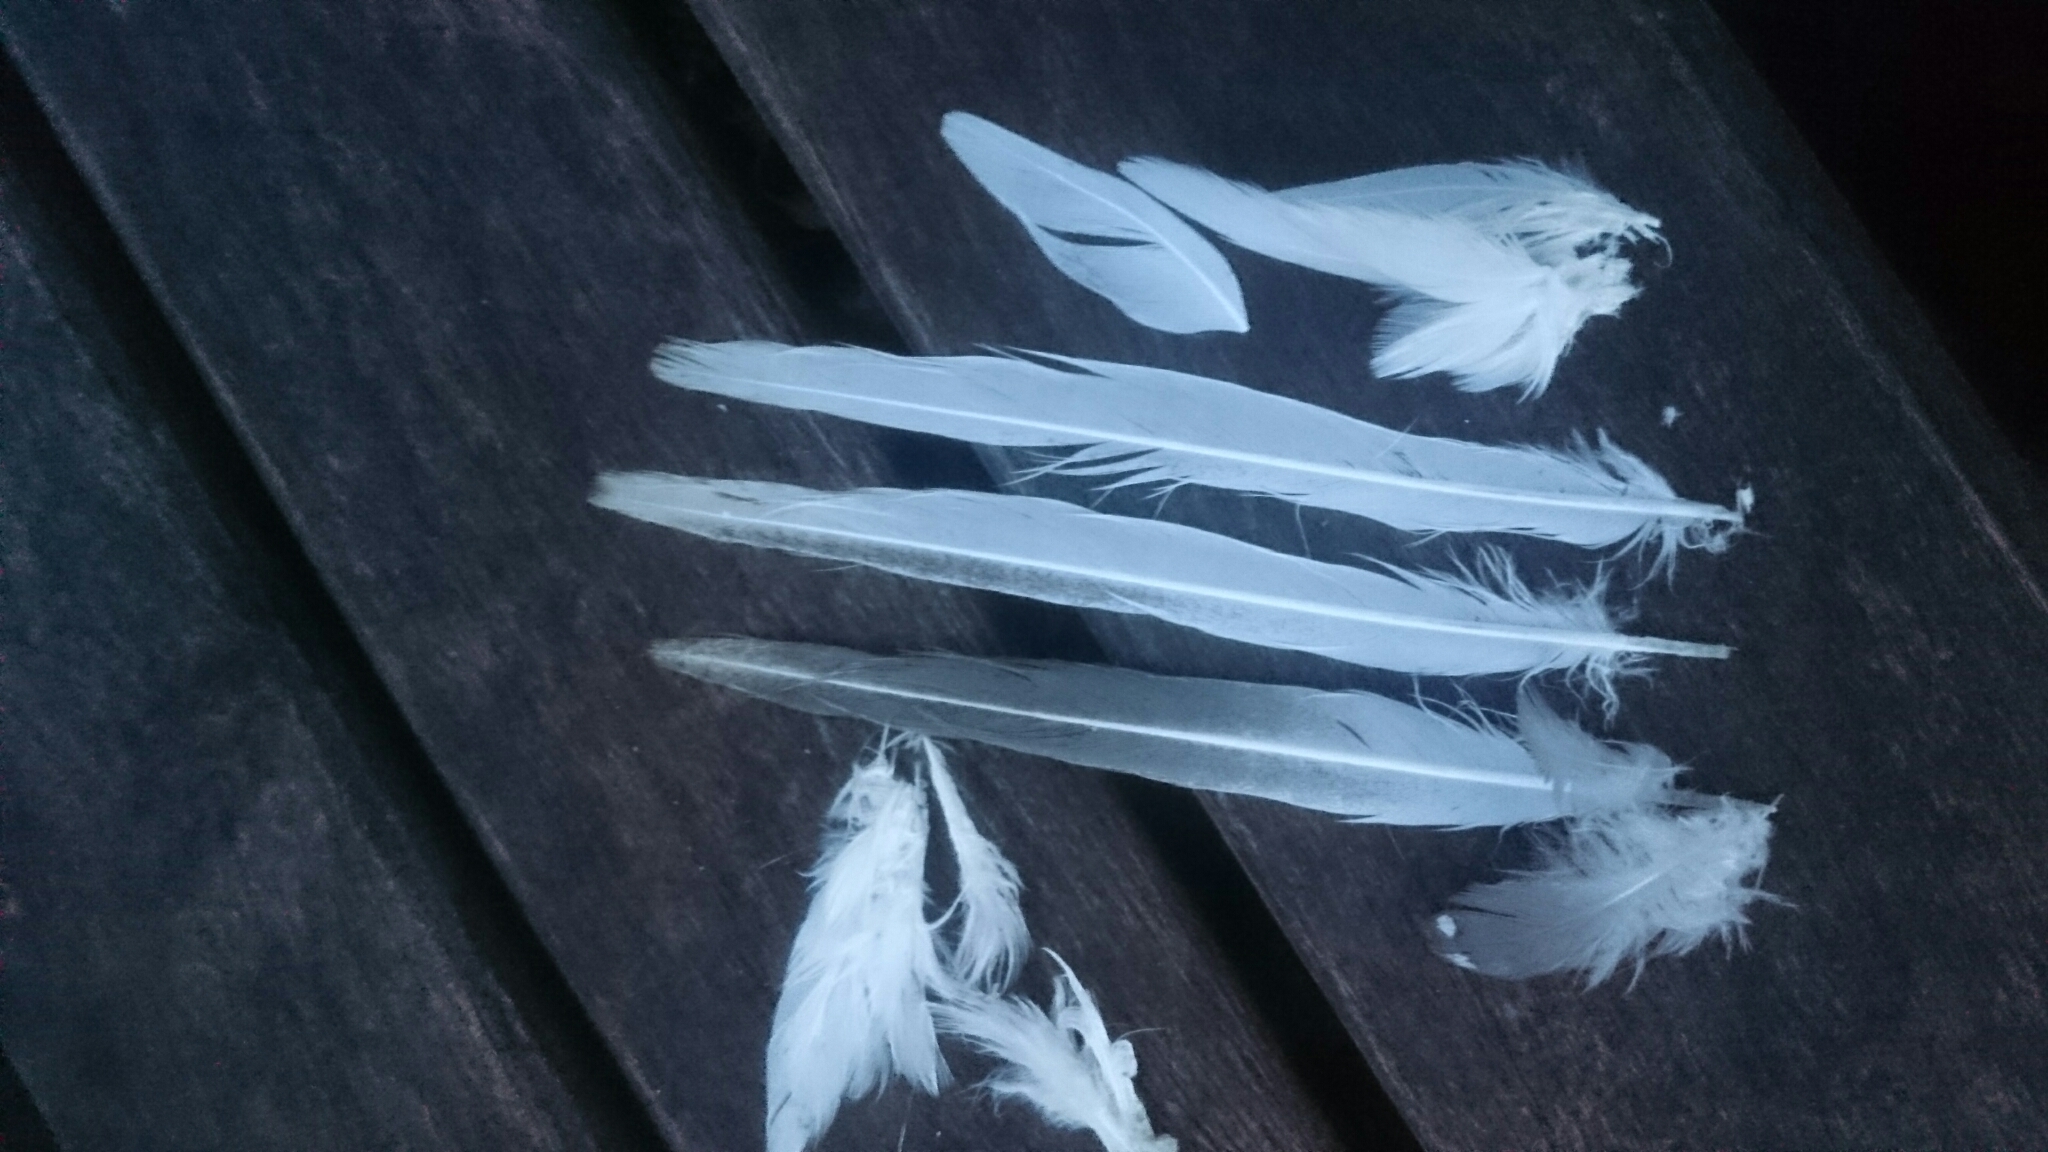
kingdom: Animalia
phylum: Chordata
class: Aves
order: Columbiformes
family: Columbidae
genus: Geopelia
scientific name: Geopelia cuneata
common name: Diamond dove
